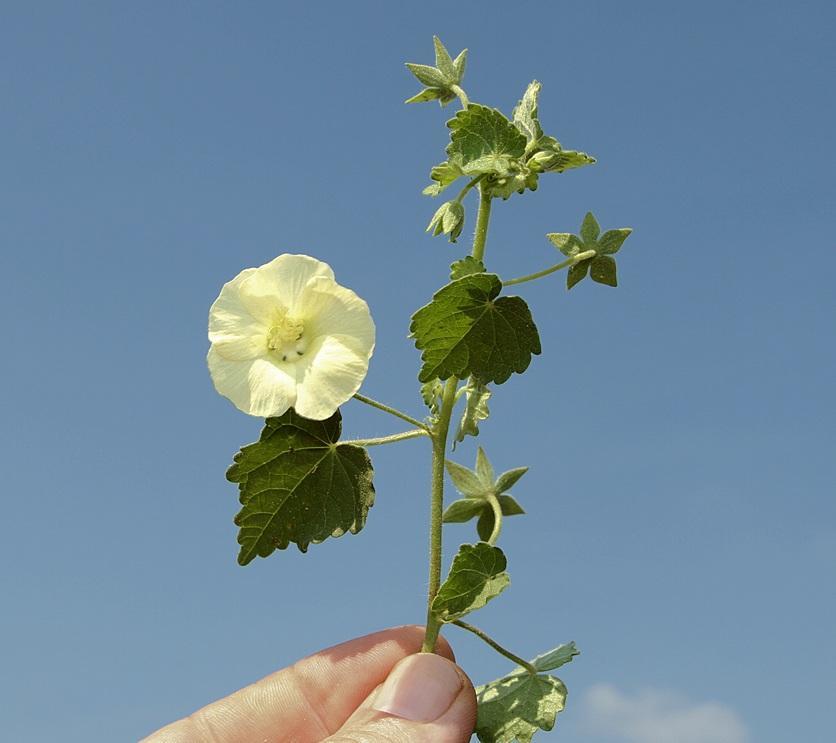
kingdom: Plantae
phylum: Tracheophyta
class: Magnoliopsida
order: Malvales
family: Malvaceae
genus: Pavonia
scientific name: Pavonia burchellii
